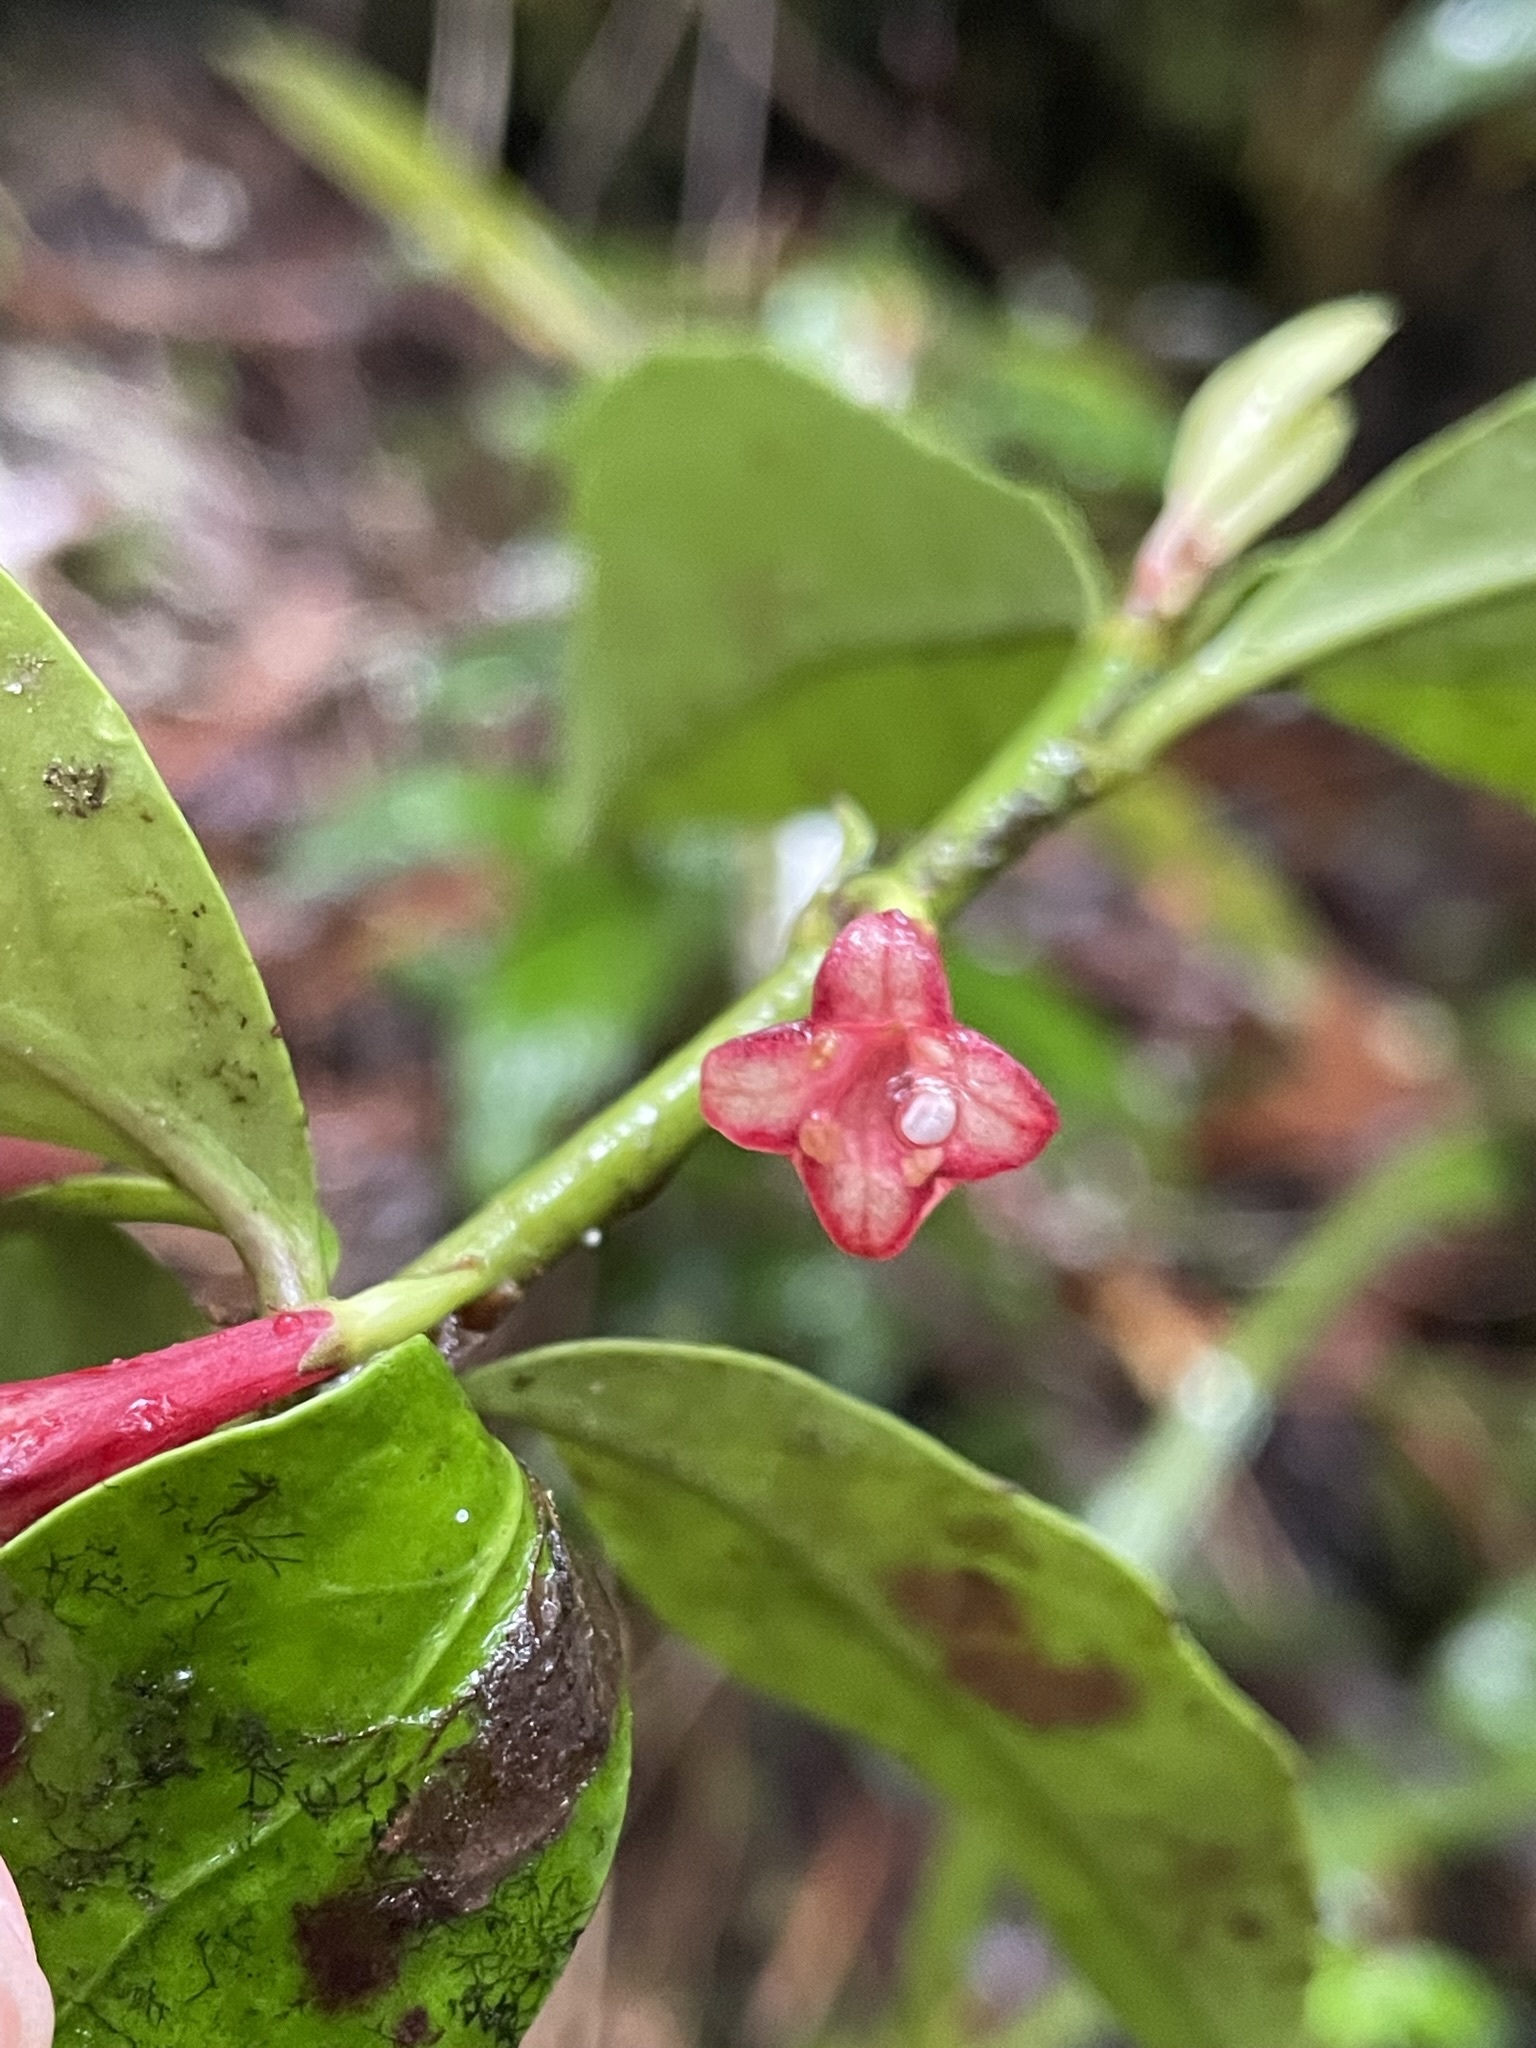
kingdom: Plantae
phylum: Tracheophyta
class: Magnoliopsida
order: Asterales
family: Alseuosmiaceae
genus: Alseuosmia
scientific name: Alseuosmia turneri
